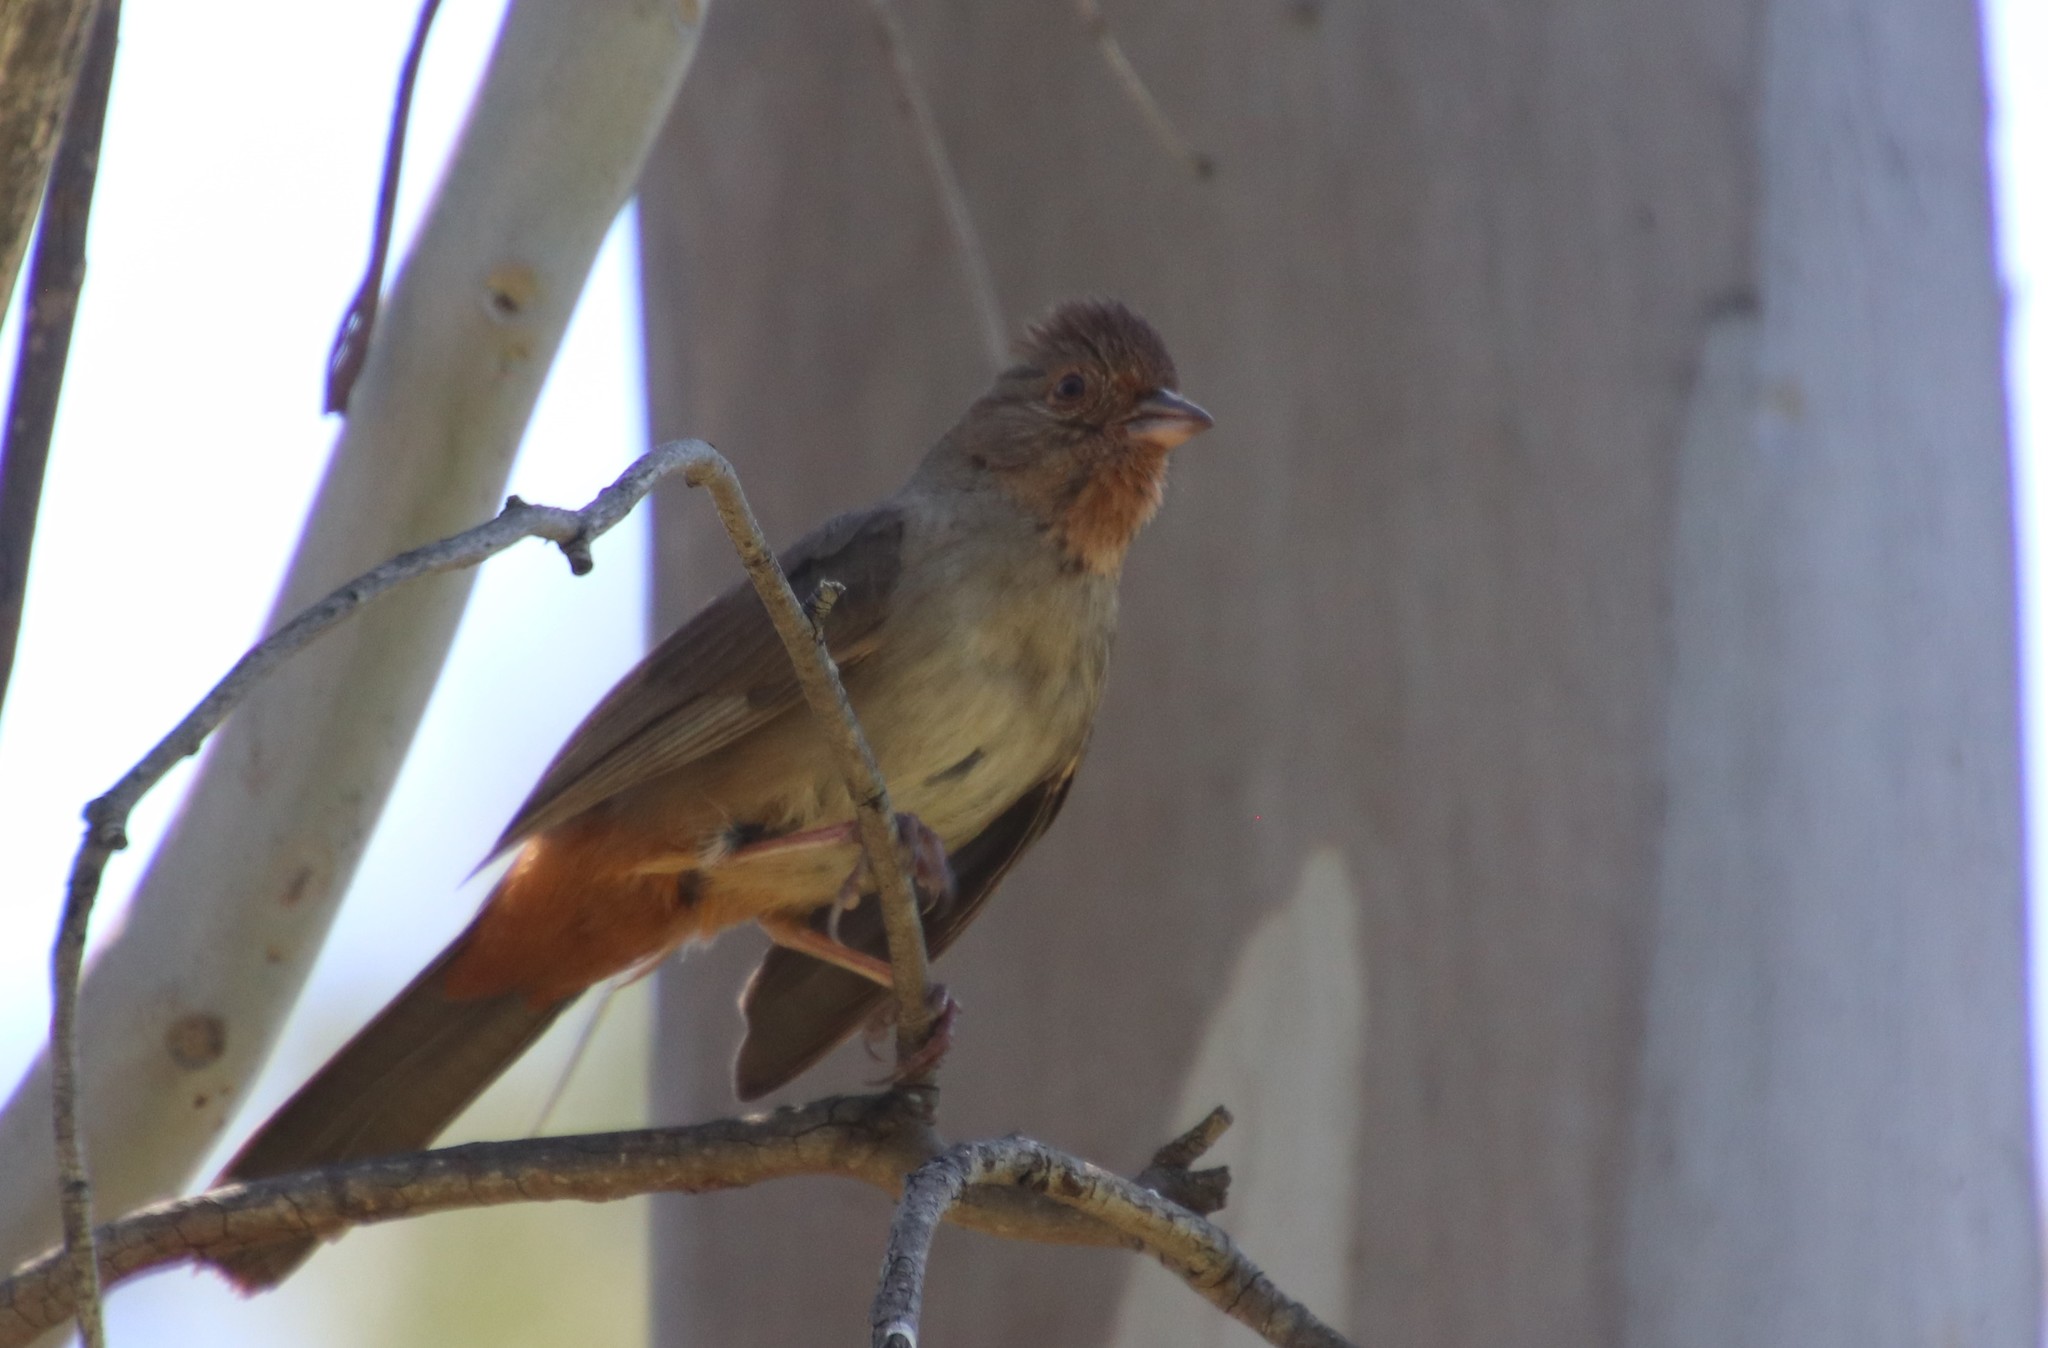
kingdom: Animalia
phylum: Chordata
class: Aves
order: Passeriformes
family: Passerellidae
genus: Melozone
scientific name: Melozone crissalis
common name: California towhee
